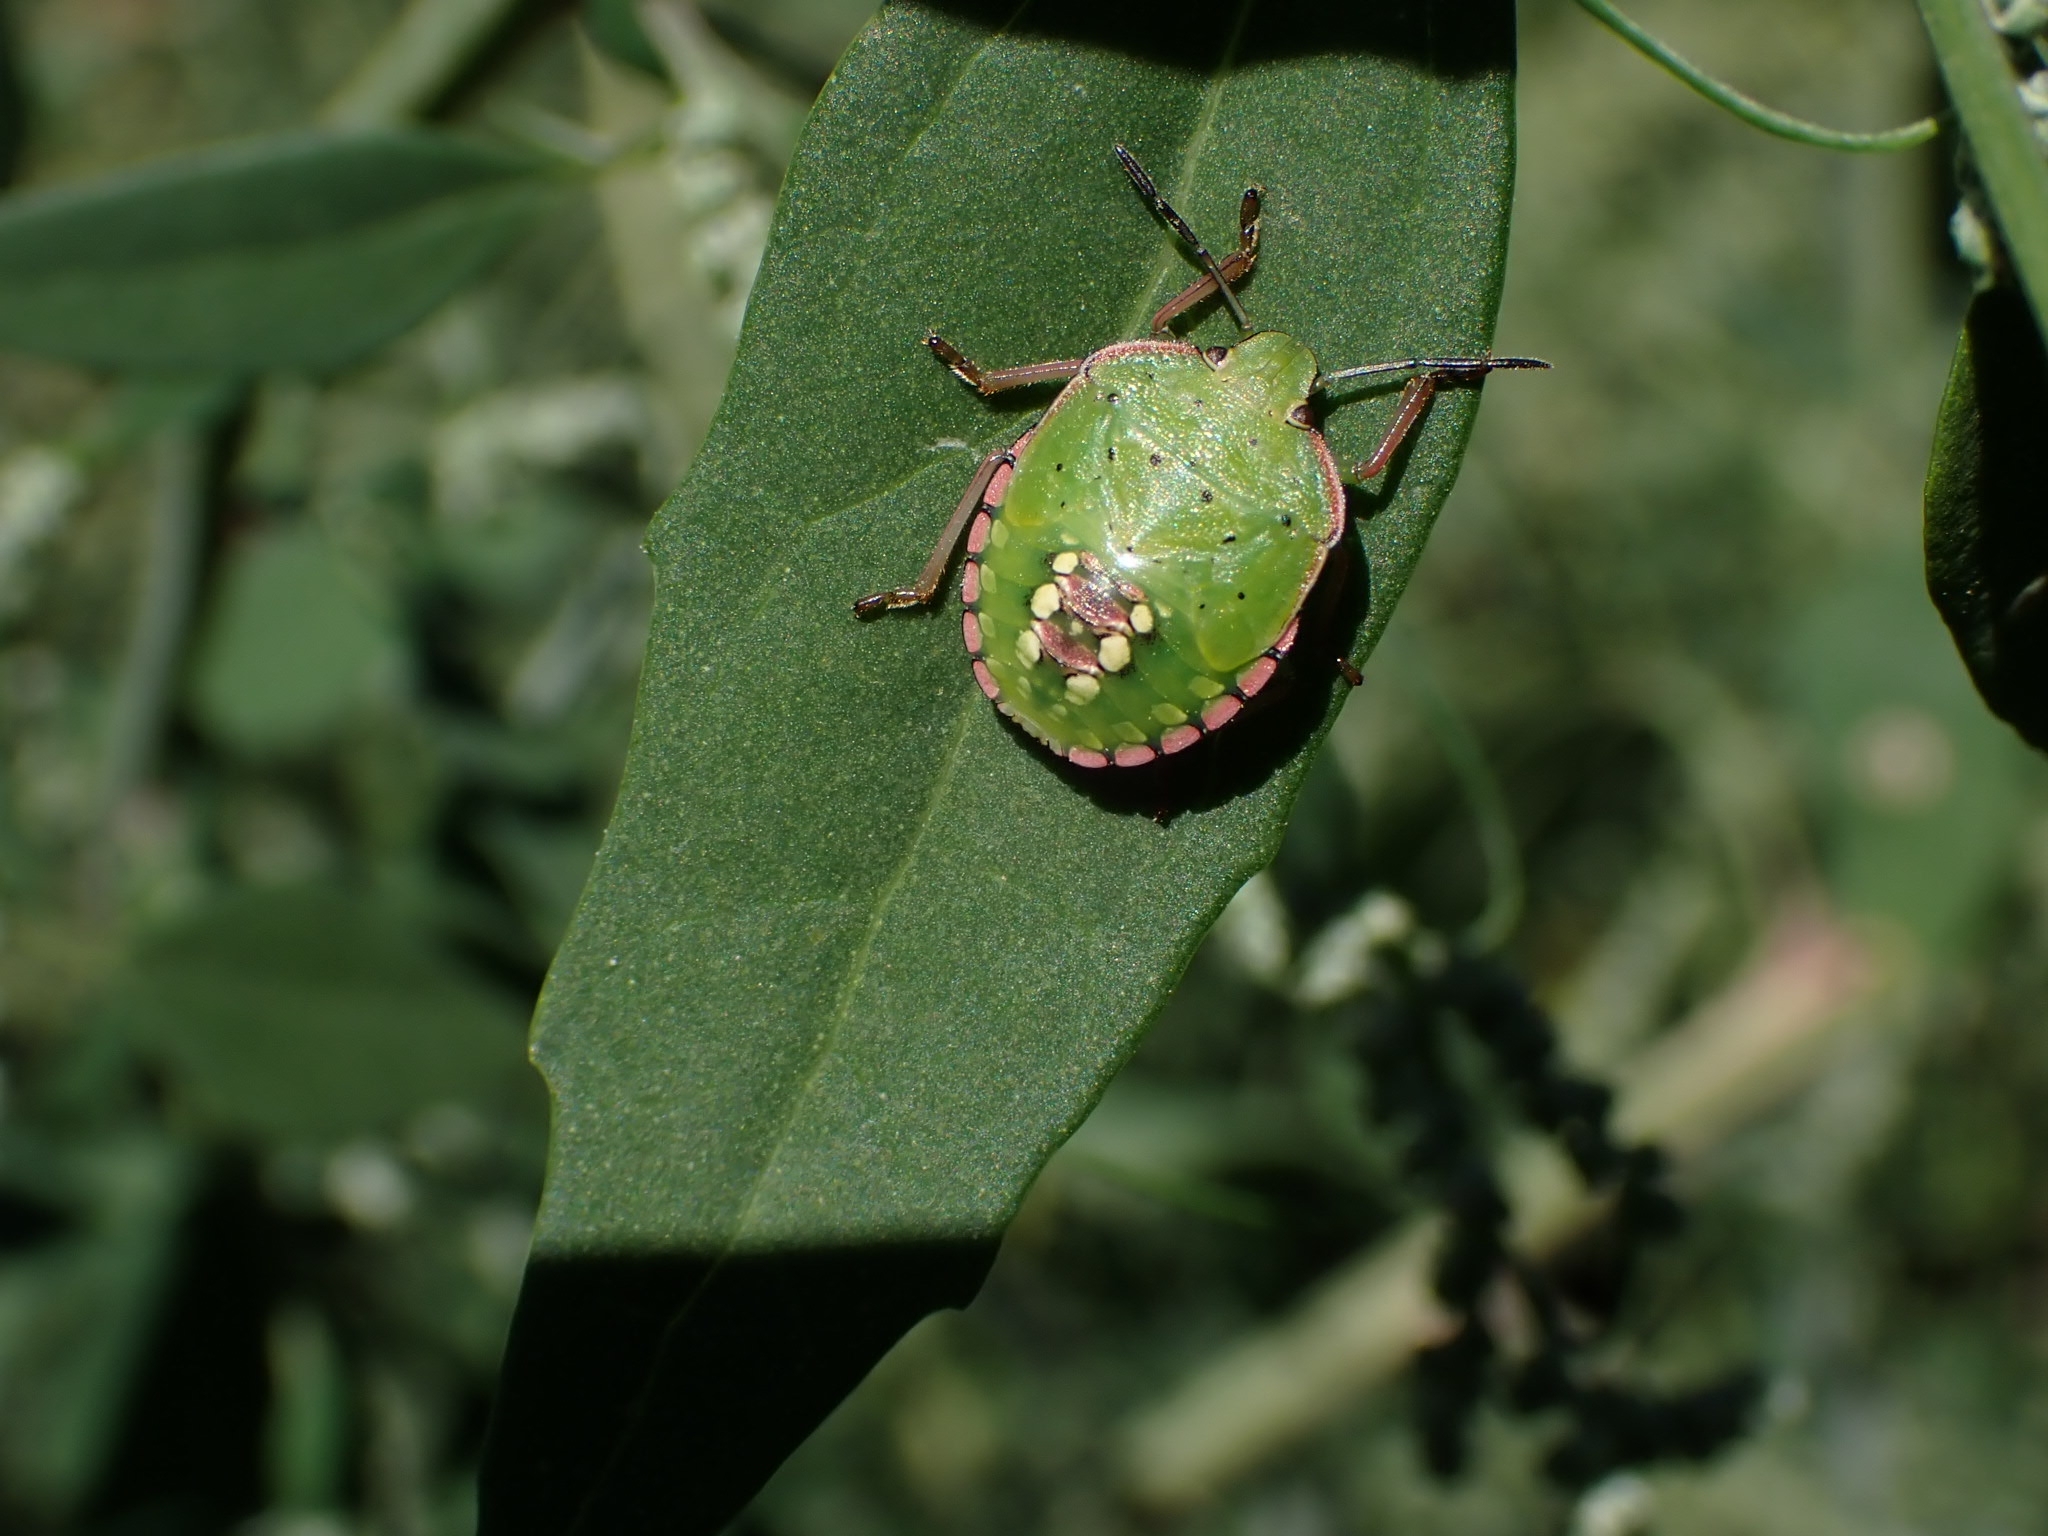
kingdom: Animalia
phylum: Arthropoda
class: Insecta
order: Hemiptera
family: Pentatomidae
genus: Nezara
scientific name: Nezara viridula
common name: Southern green stink bug
